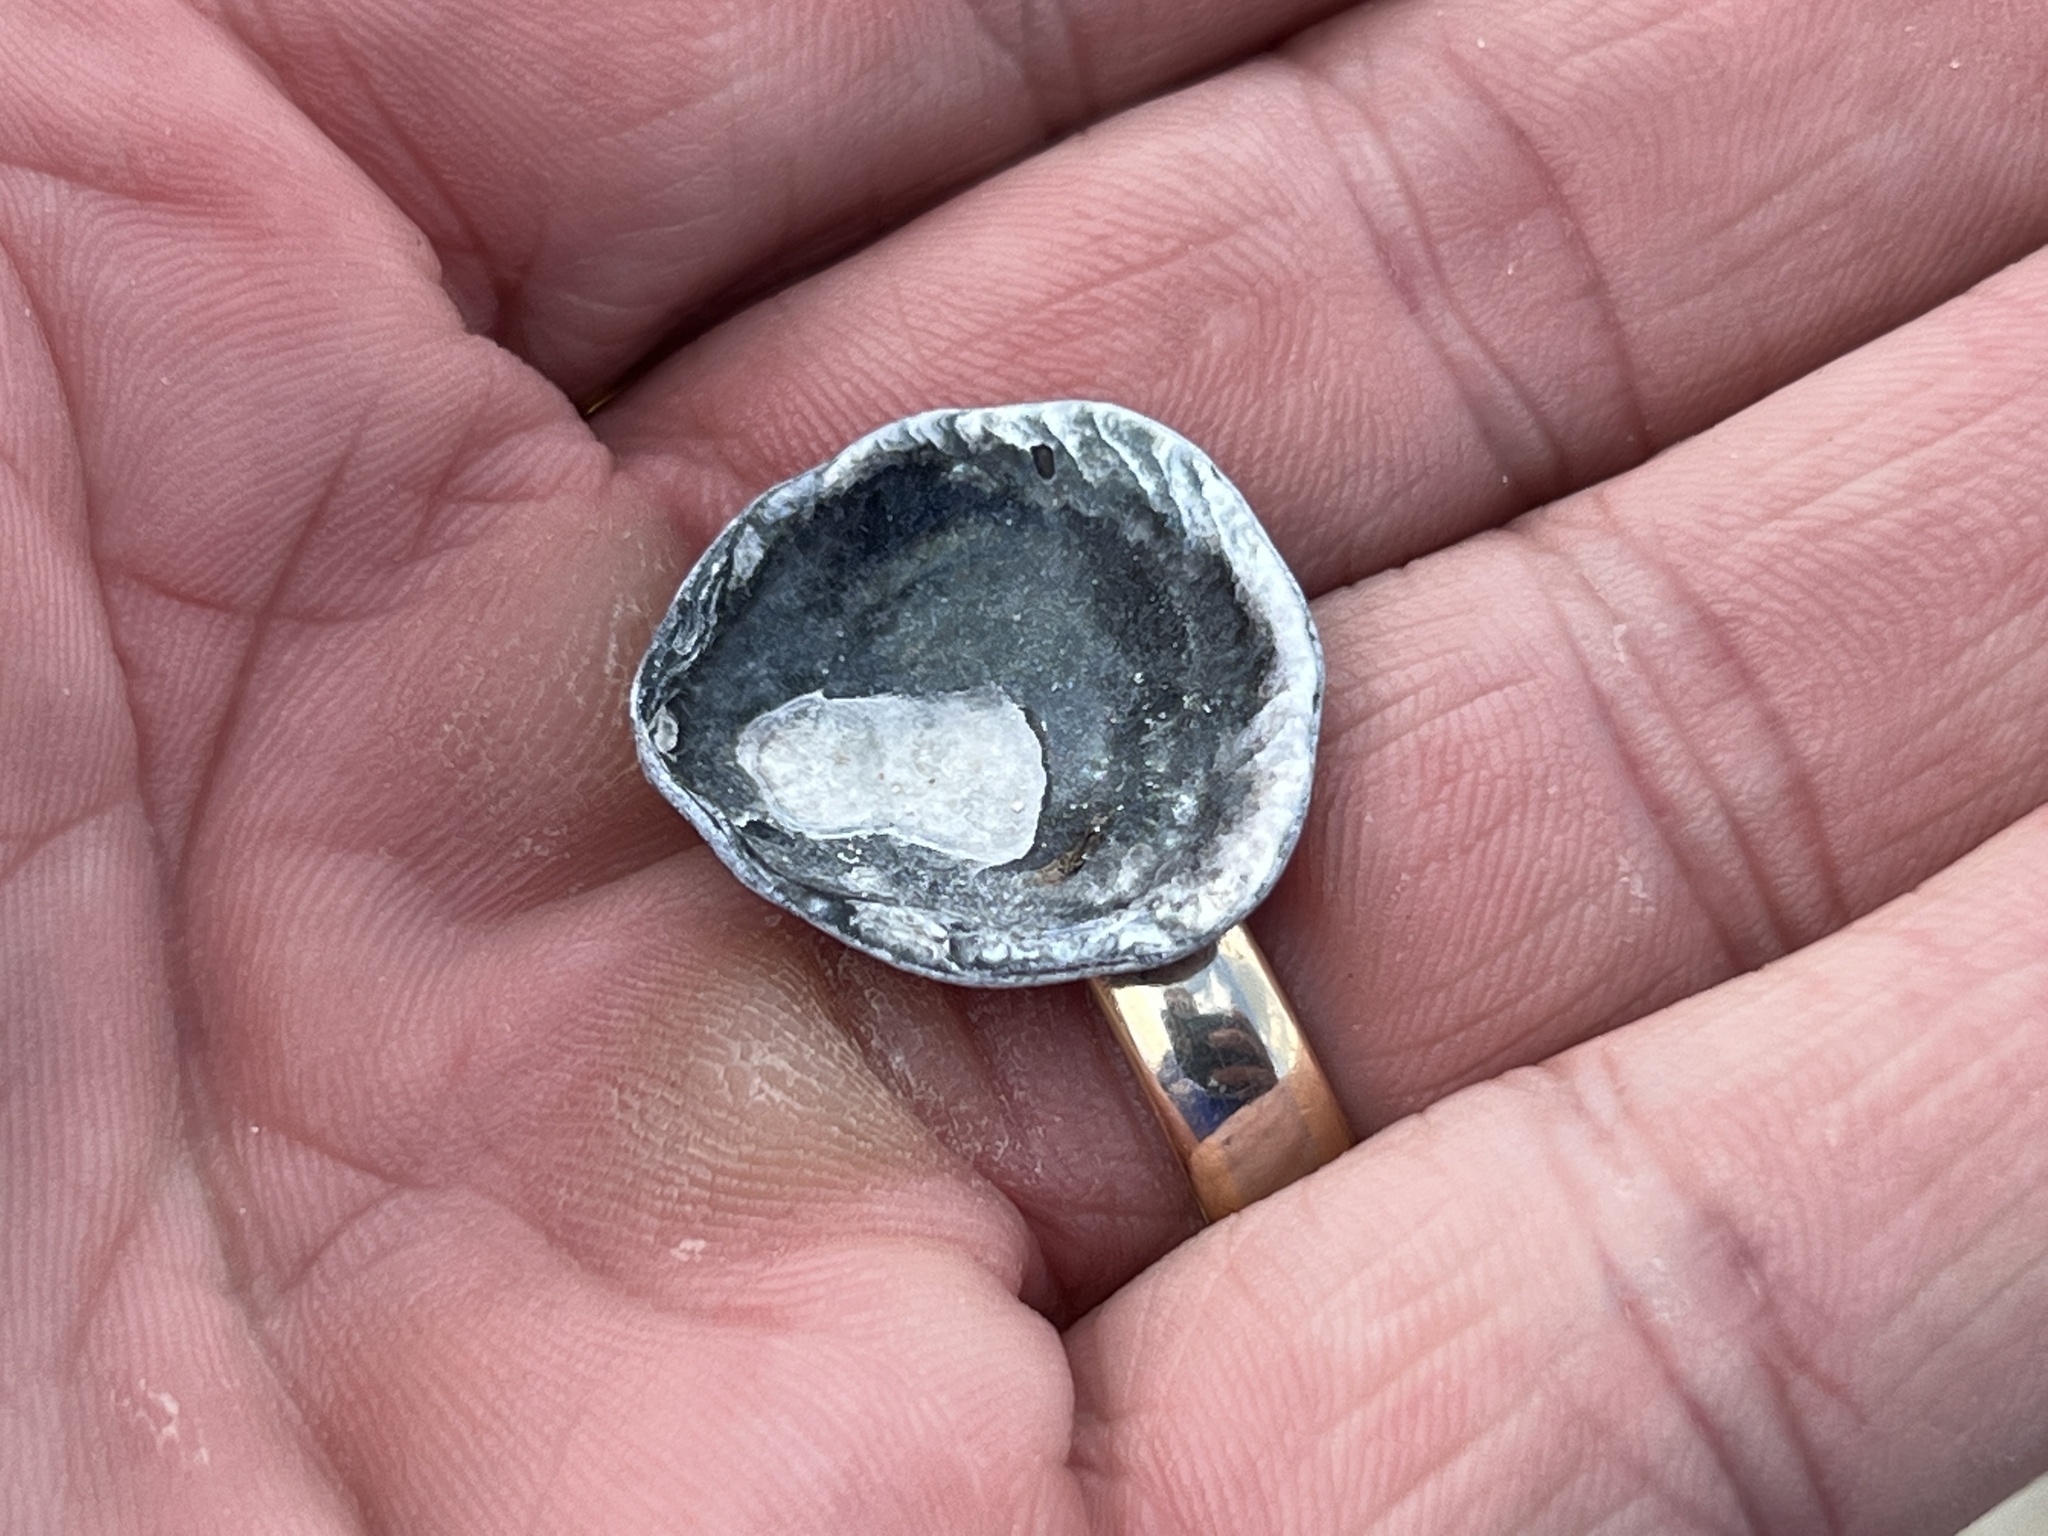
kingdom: Animalia
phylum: Mollusca
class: Bivalvia
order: Pectinida
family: Anomiidae
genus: Anomia
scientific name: Anomia simplex
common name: Common jingle shell
